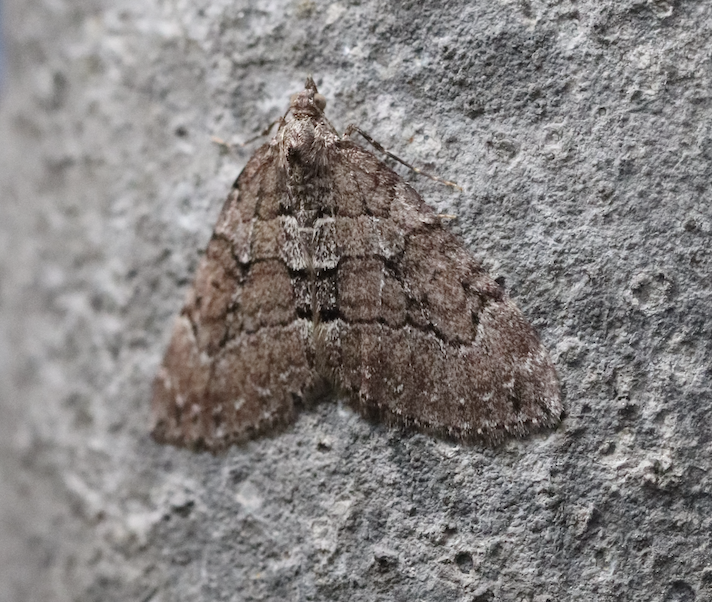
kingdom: Animalia
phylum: Arthropoda
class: Insecta
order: Lepidoptera
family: Geometridae
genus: Thera
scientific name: Thera cognata
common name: Chestnut-coloured carpet
